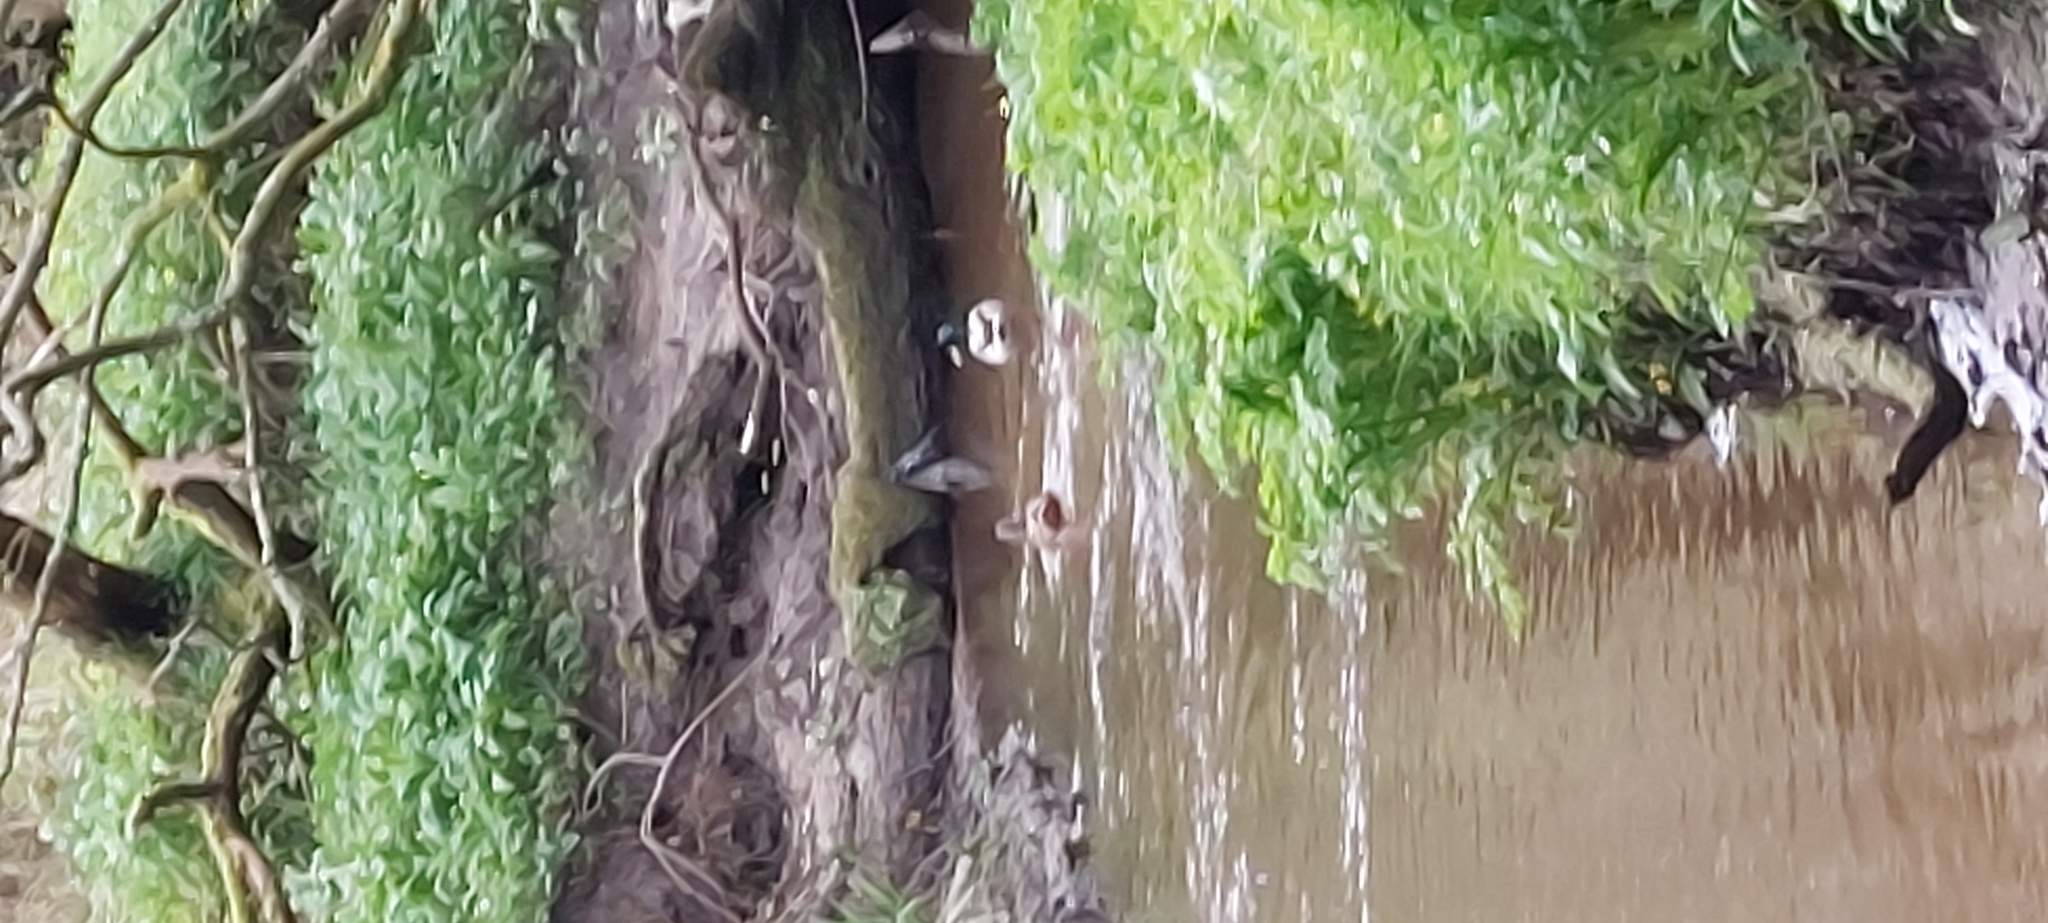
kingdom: Animalia
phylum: Chordata
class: Aves
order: Anseriformes
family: Anatidae
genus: Anas
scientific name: Anas platyrhynchos
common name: Mallard
